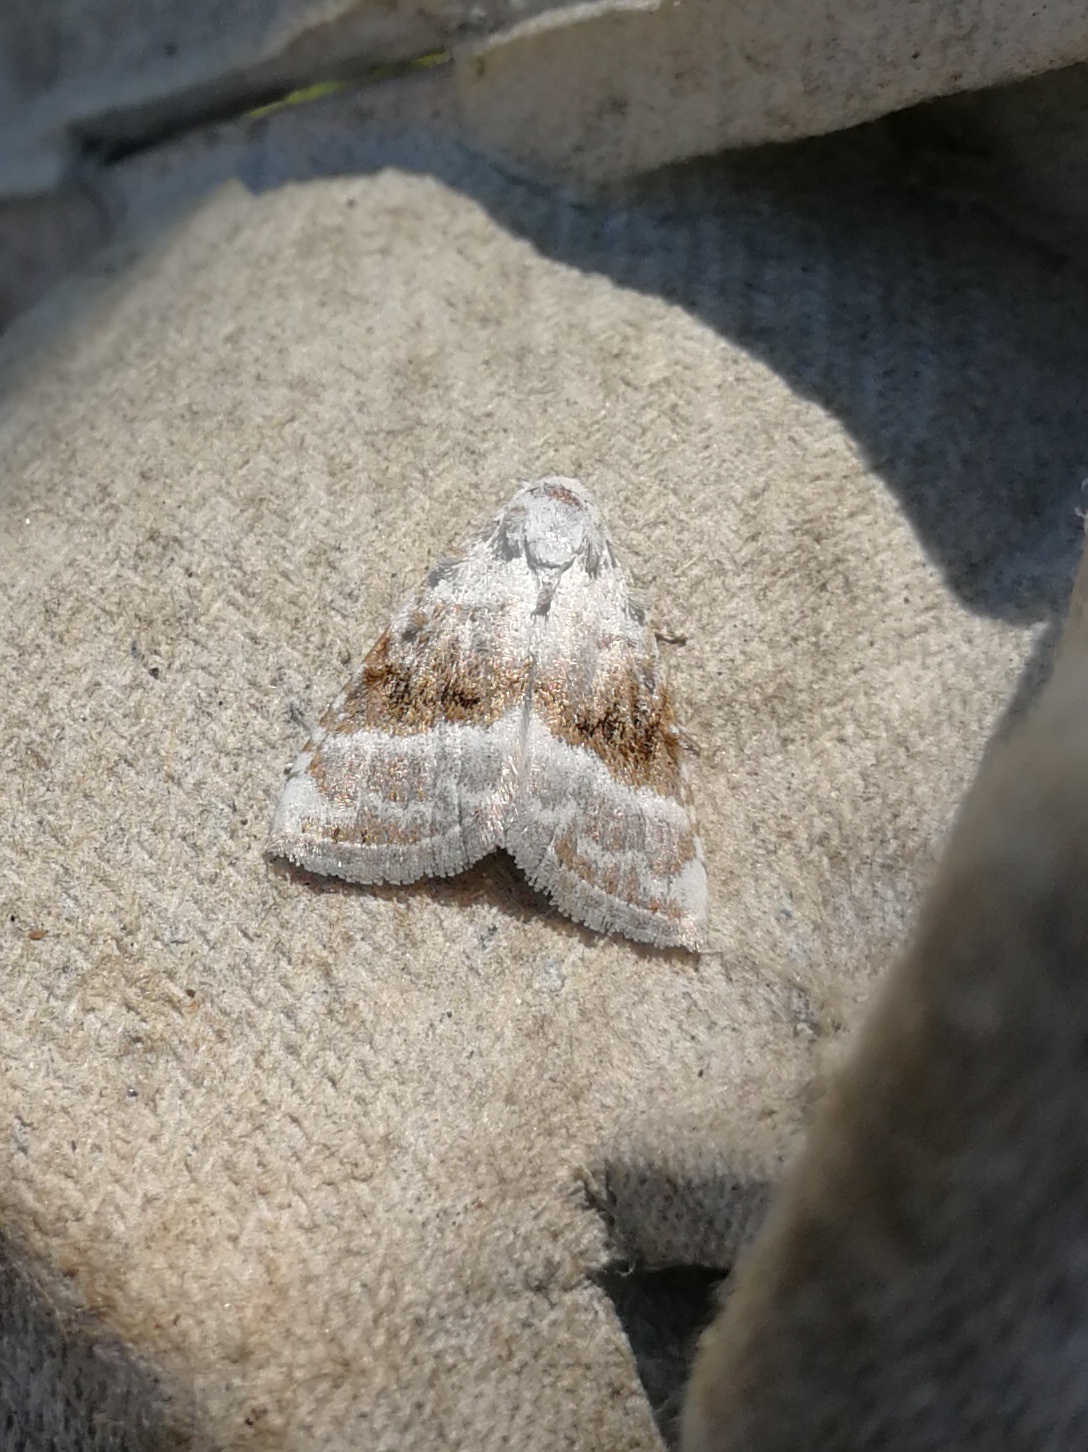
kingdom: Animalia
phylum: Arthropoda
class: Insecta
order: Lepidoptera
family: Nolidae
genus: Meganola
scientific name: Meganola albula
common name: Kent black arches
